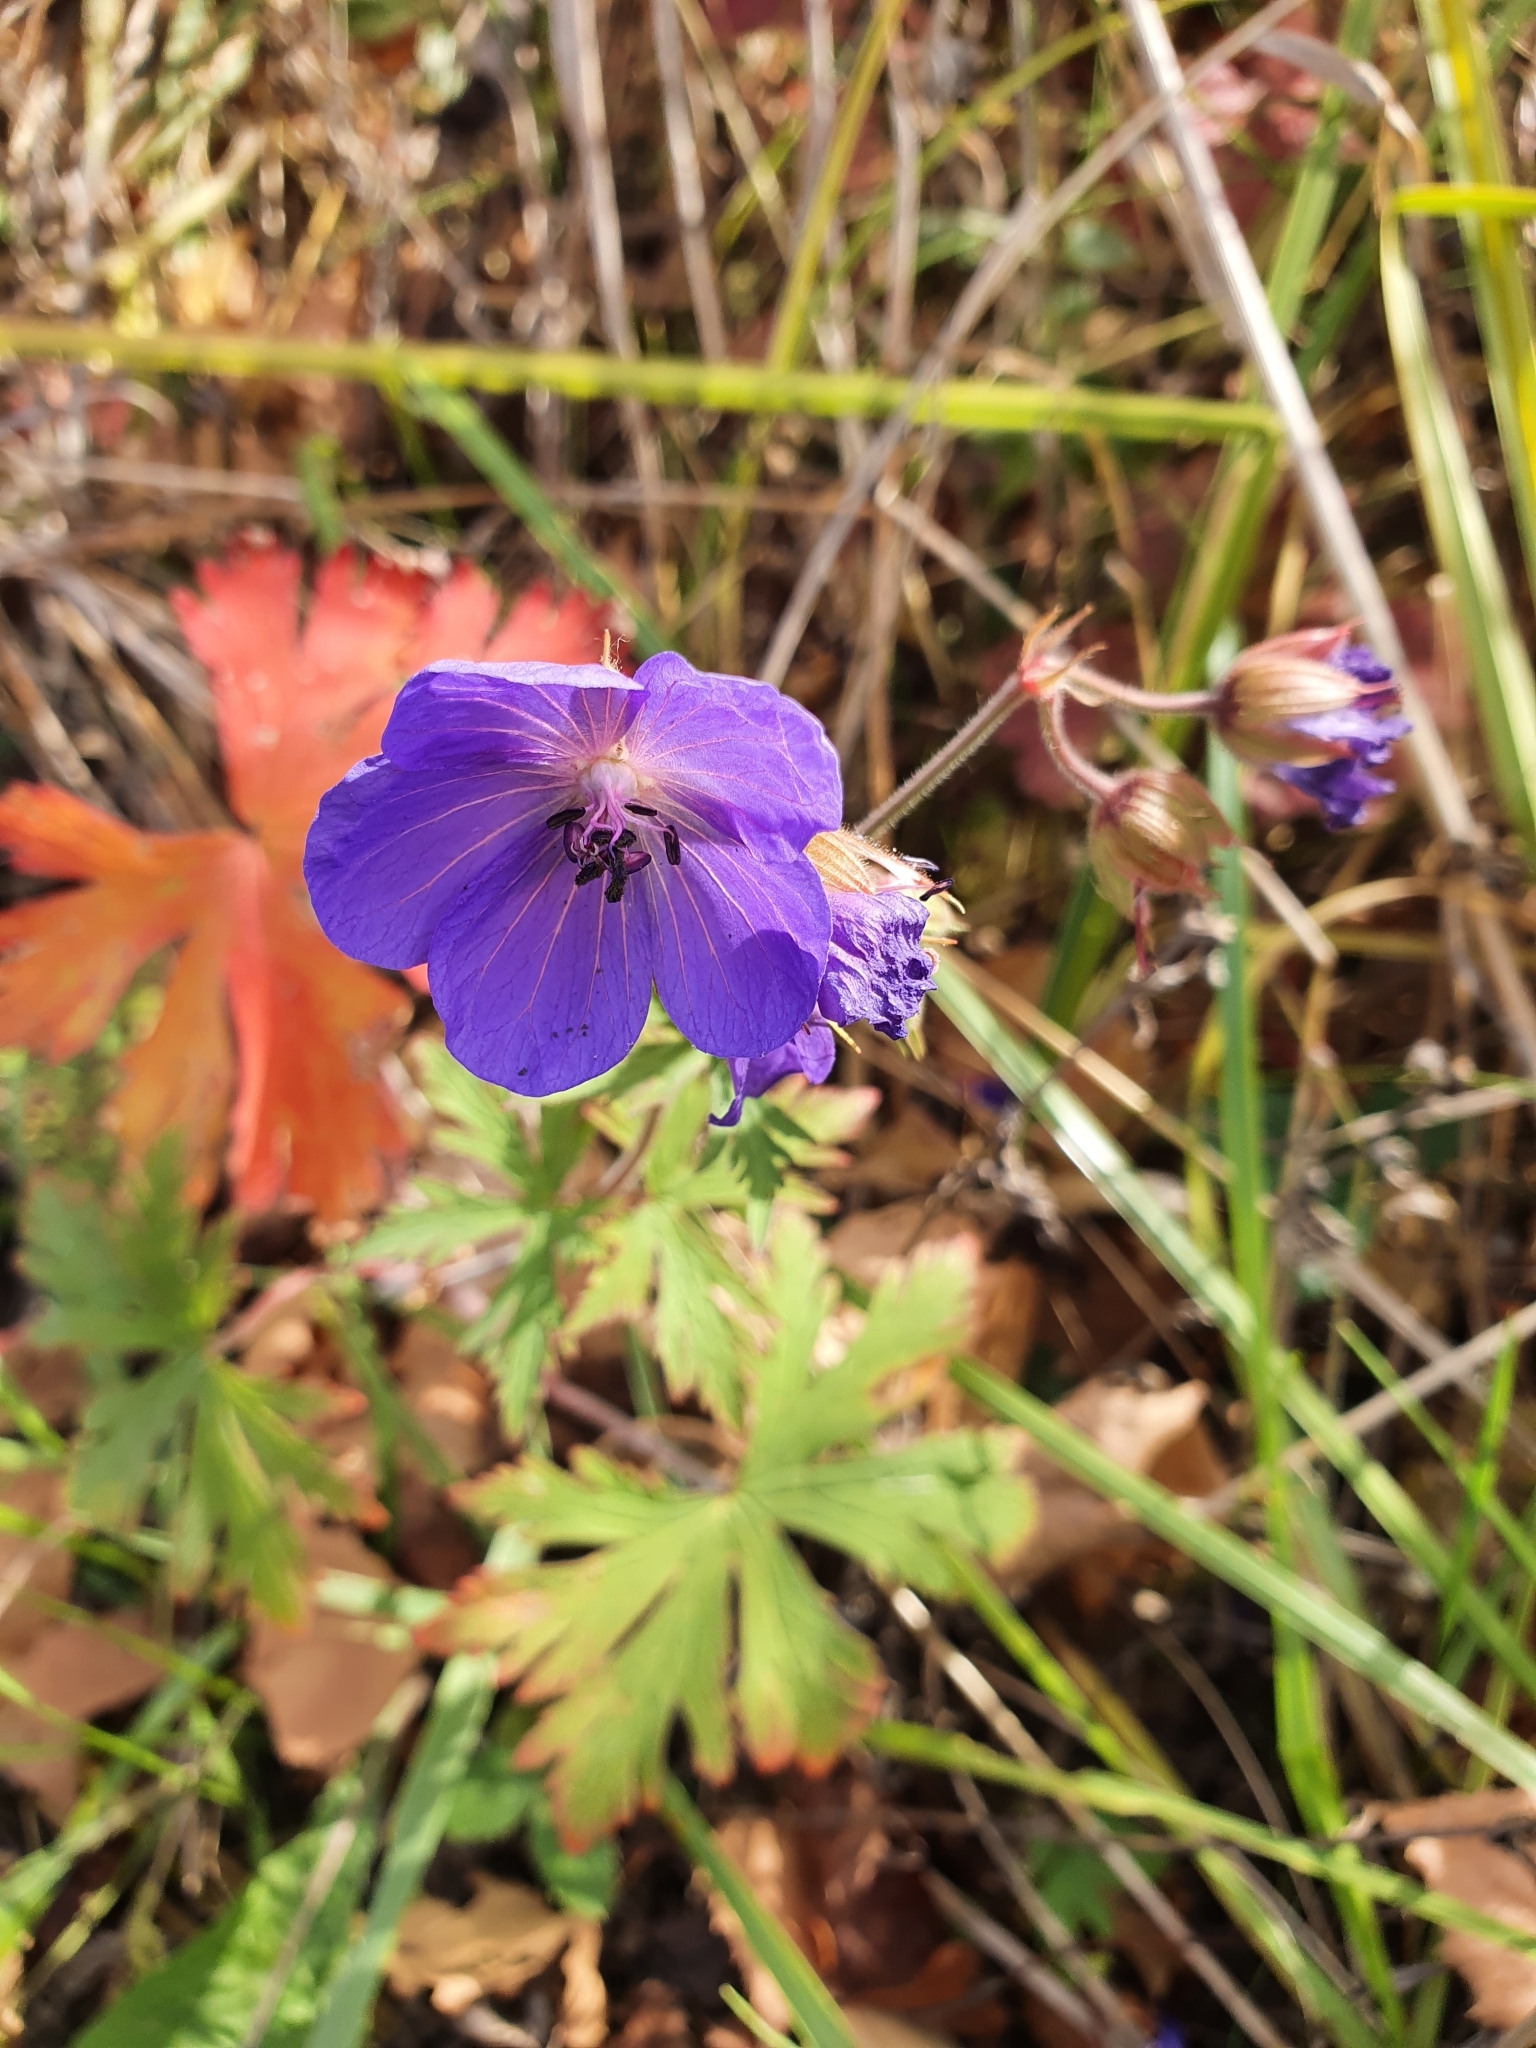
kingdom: Plantae
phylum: Tracheophyta
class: Magnoliopsida
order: Geraniales
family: Geraniaceae
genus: Geranium
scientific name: Geranium pratense
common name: Meadow crane's-bill
